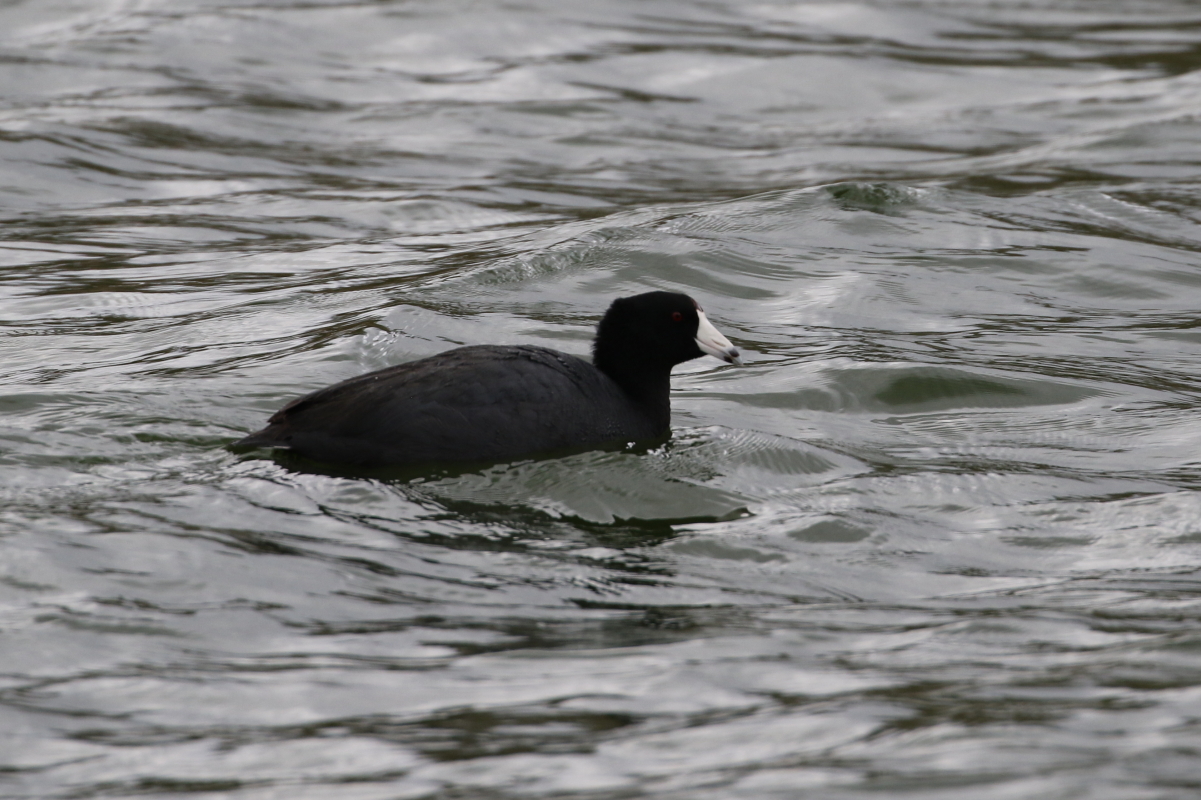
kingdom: Animalia
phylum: Chordata
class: Aves
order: Gruiformes
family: Rallidae
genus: Fulica
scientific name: Fulica americana
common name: American coot
